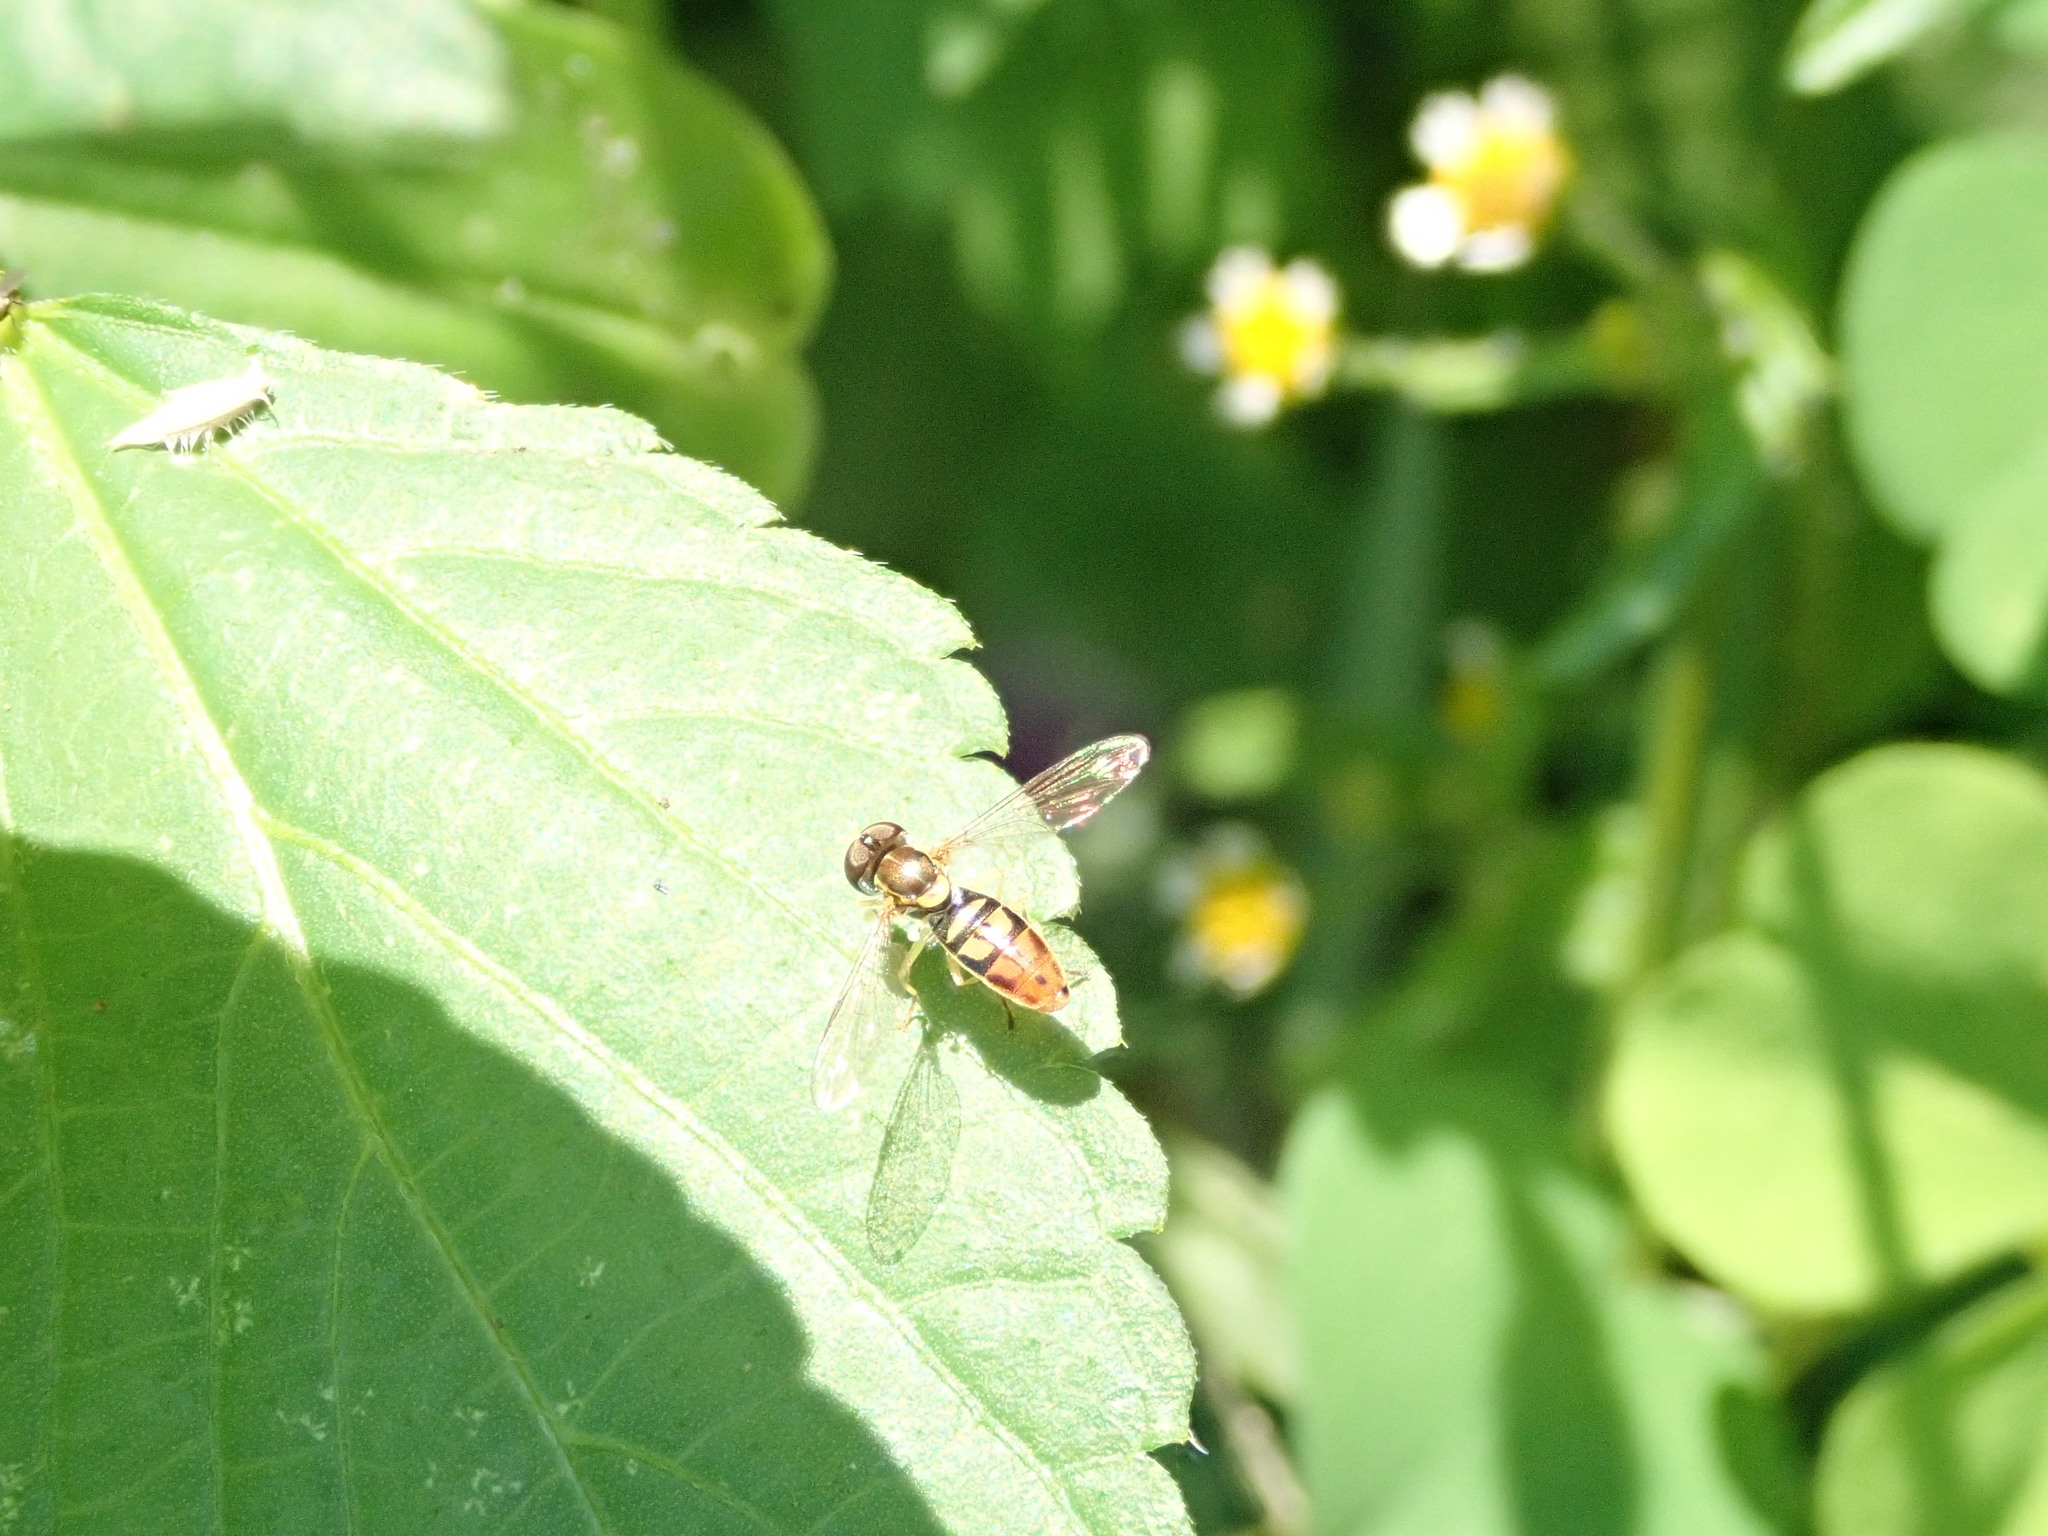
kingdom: Animalia
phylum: Arthropoda
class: Insecta
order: Diptera
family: Syrphidae
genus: Toxomerus
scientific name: Toxomerus marginatus
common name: Syrphid fly
